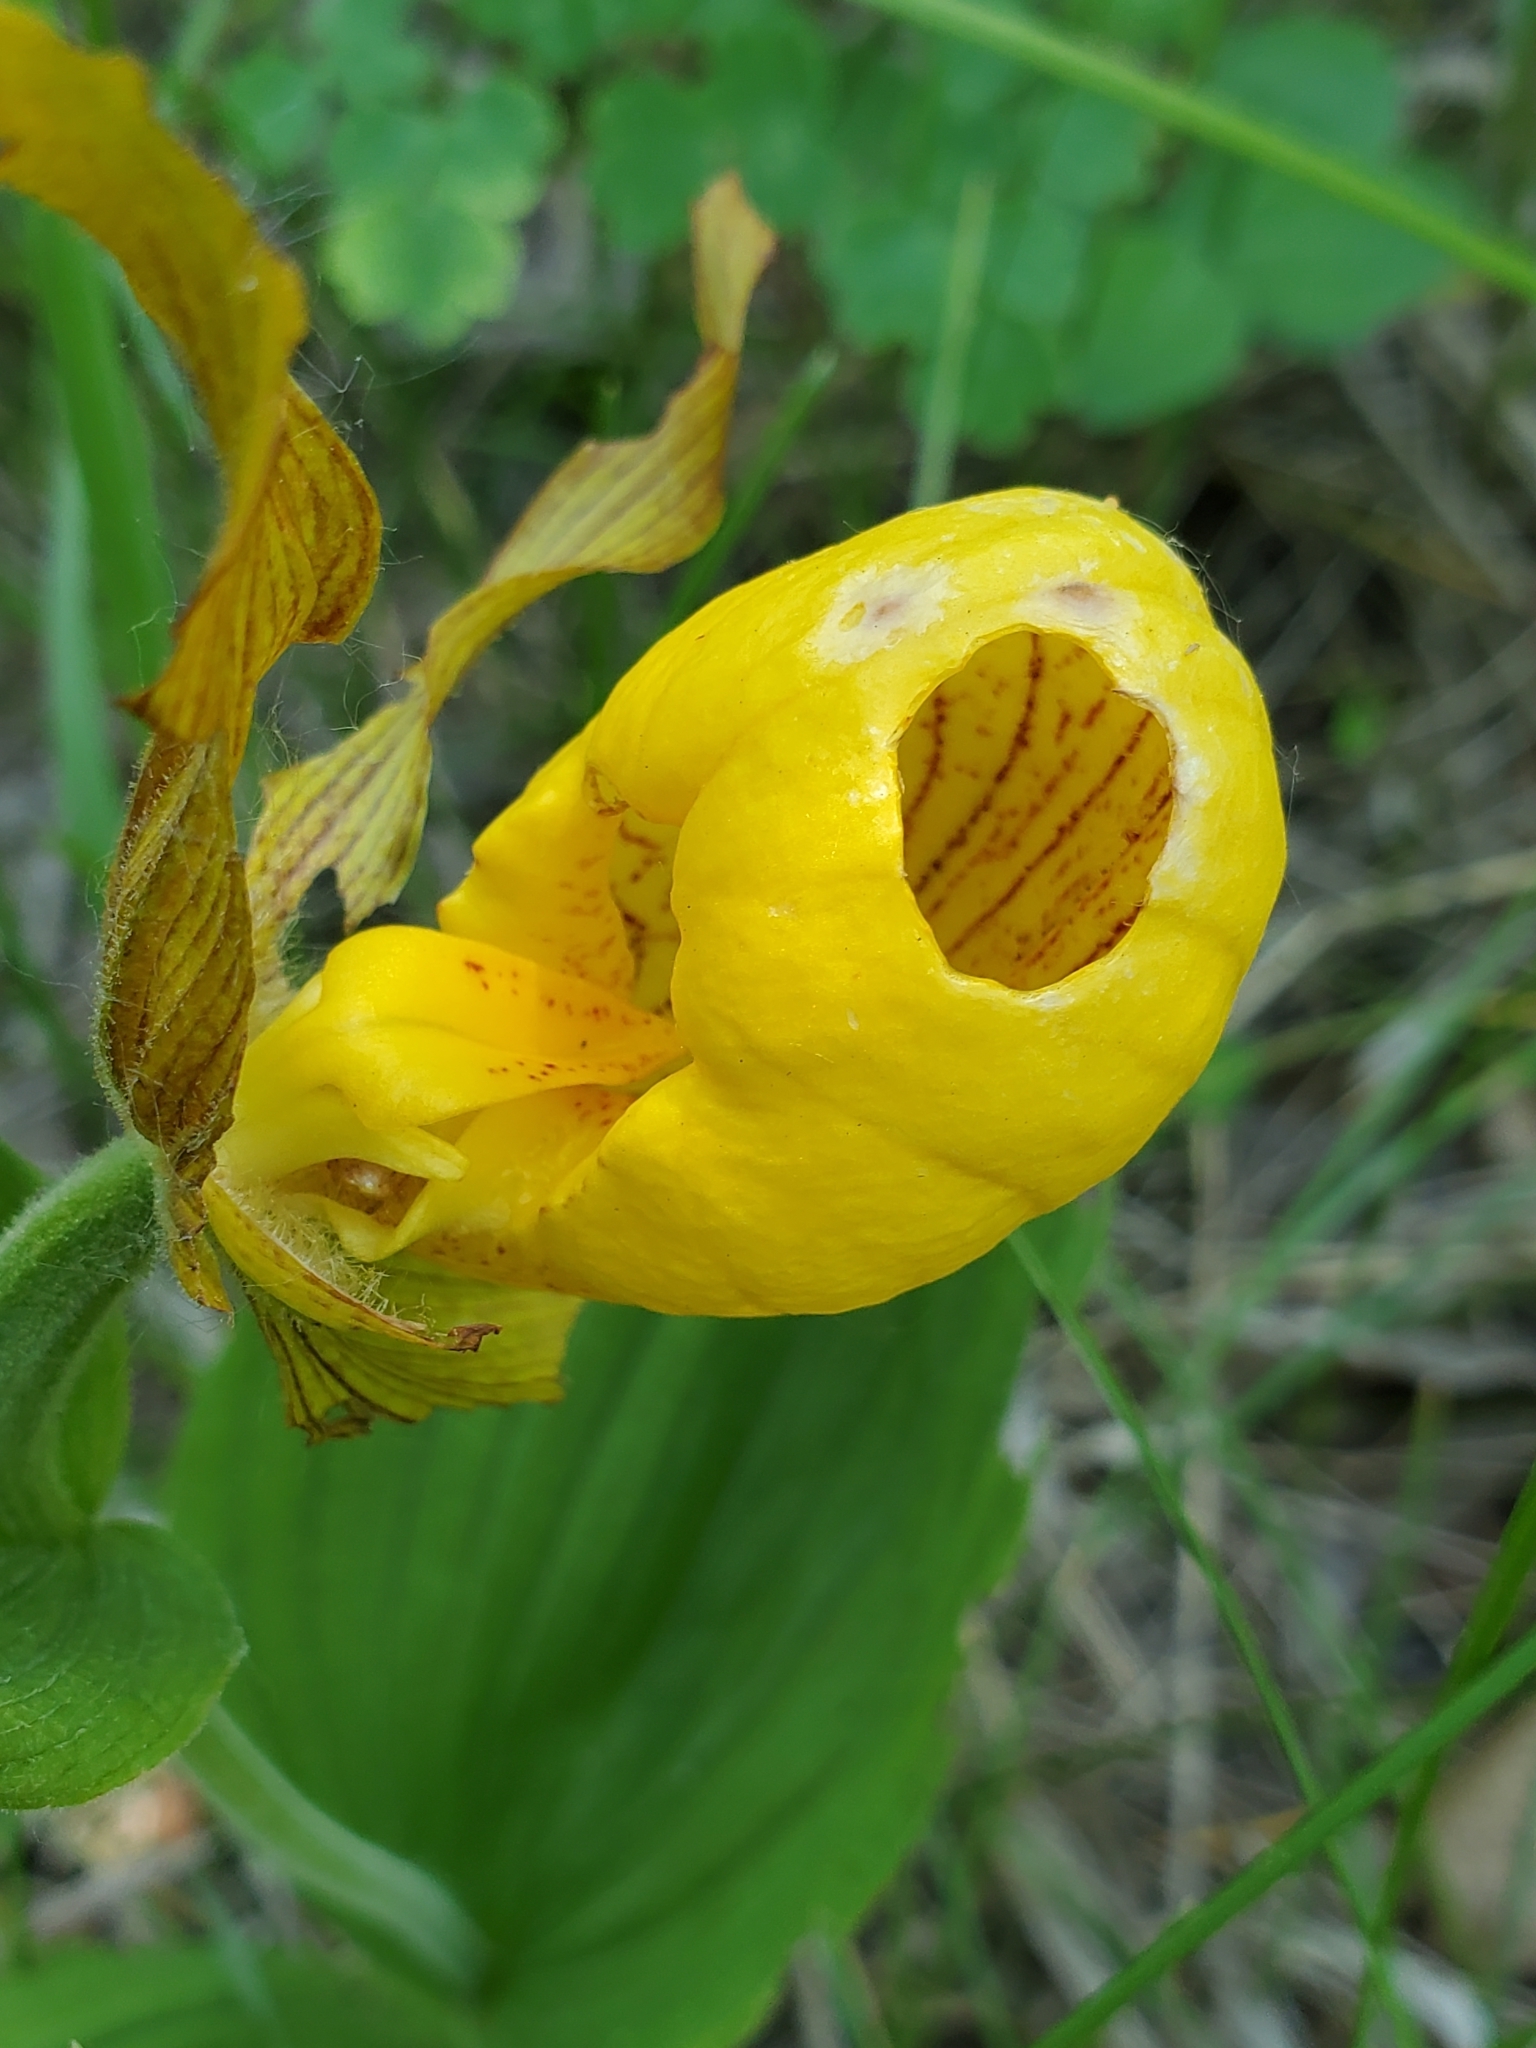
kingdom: Plantae
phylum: Tracheophyta
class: Liliopsida
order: Asparagales
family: Orchidaceae
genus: Cypripedium
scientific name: Cypripedium parviflorum
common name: American yellow lady's-slipper
